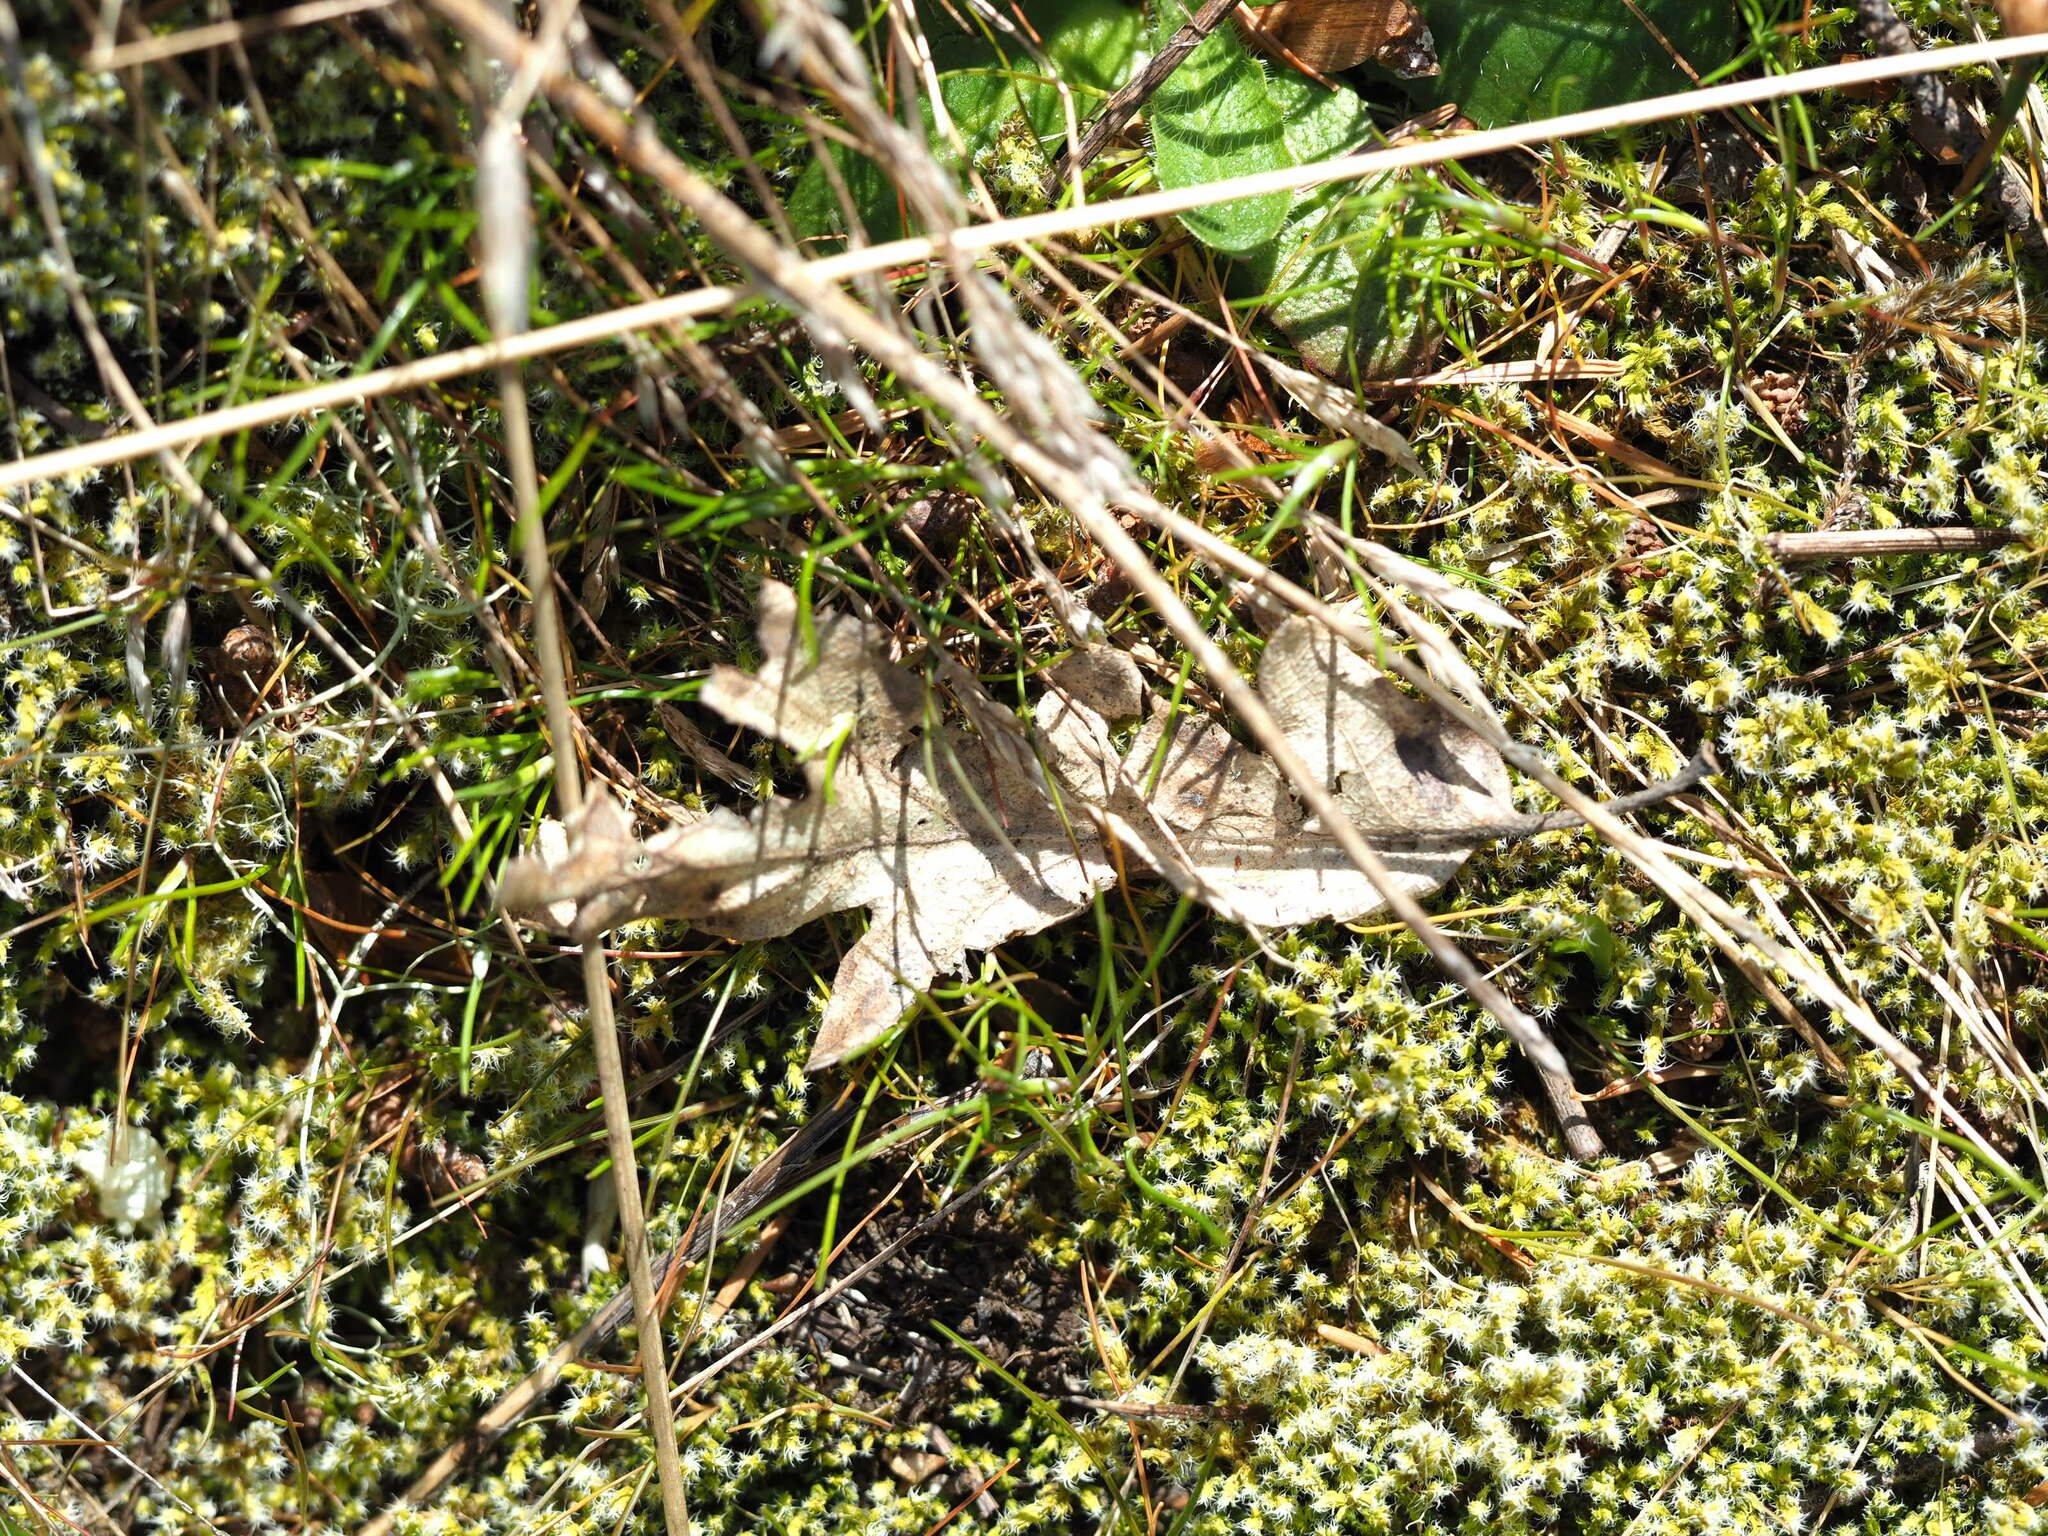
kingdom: Plantae
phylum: Tracheophyta
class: Magnoliopsida
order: Fagales
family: Fagaceae
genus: Quercus
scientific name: Quercus garryana
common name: Garry oak
